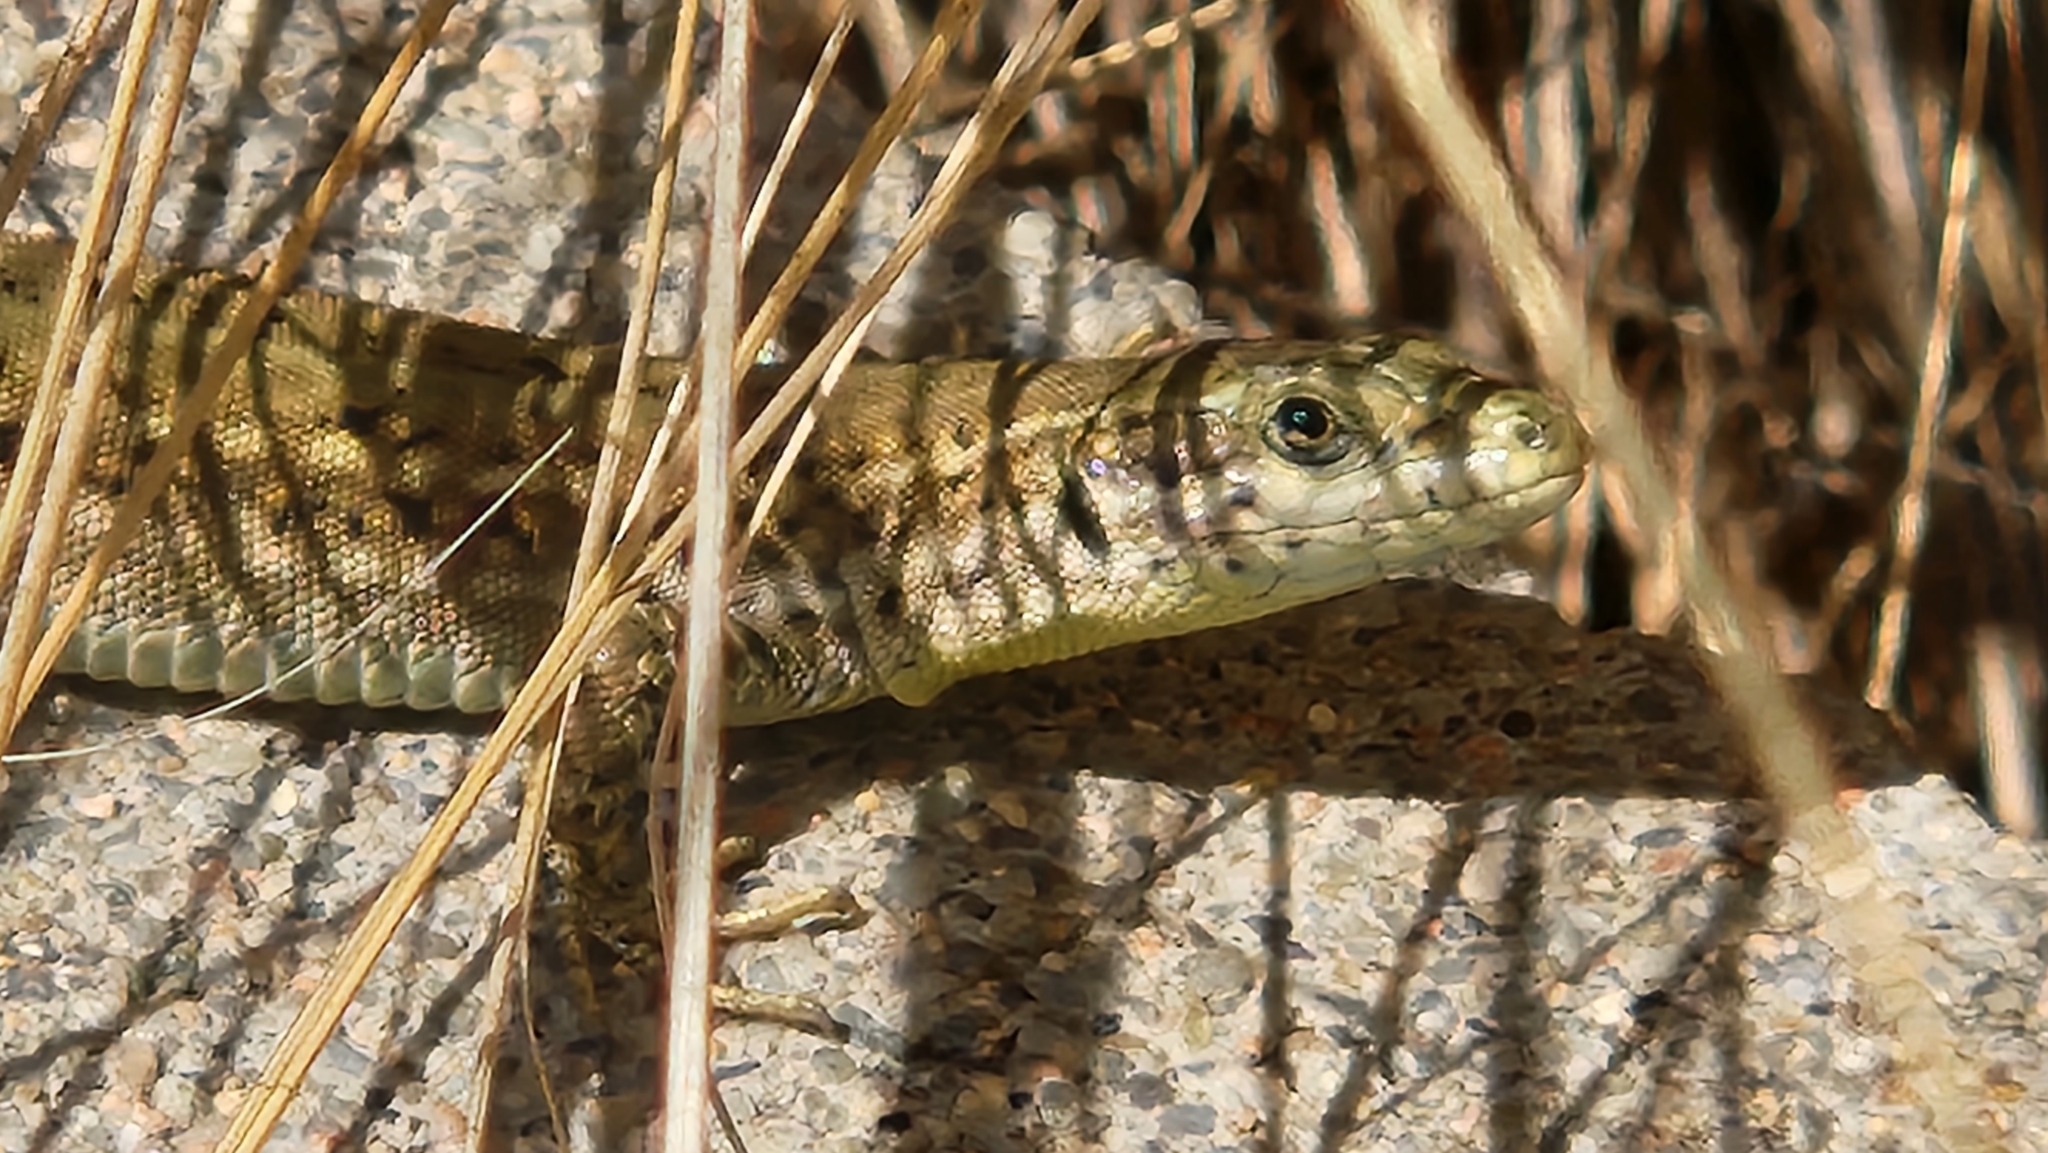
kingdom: Animalia
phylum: Chordata
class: Squamata
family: Lacertidae
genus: Podarcis
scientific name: Podarcis liolepis
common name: Catalonian wall lizard
